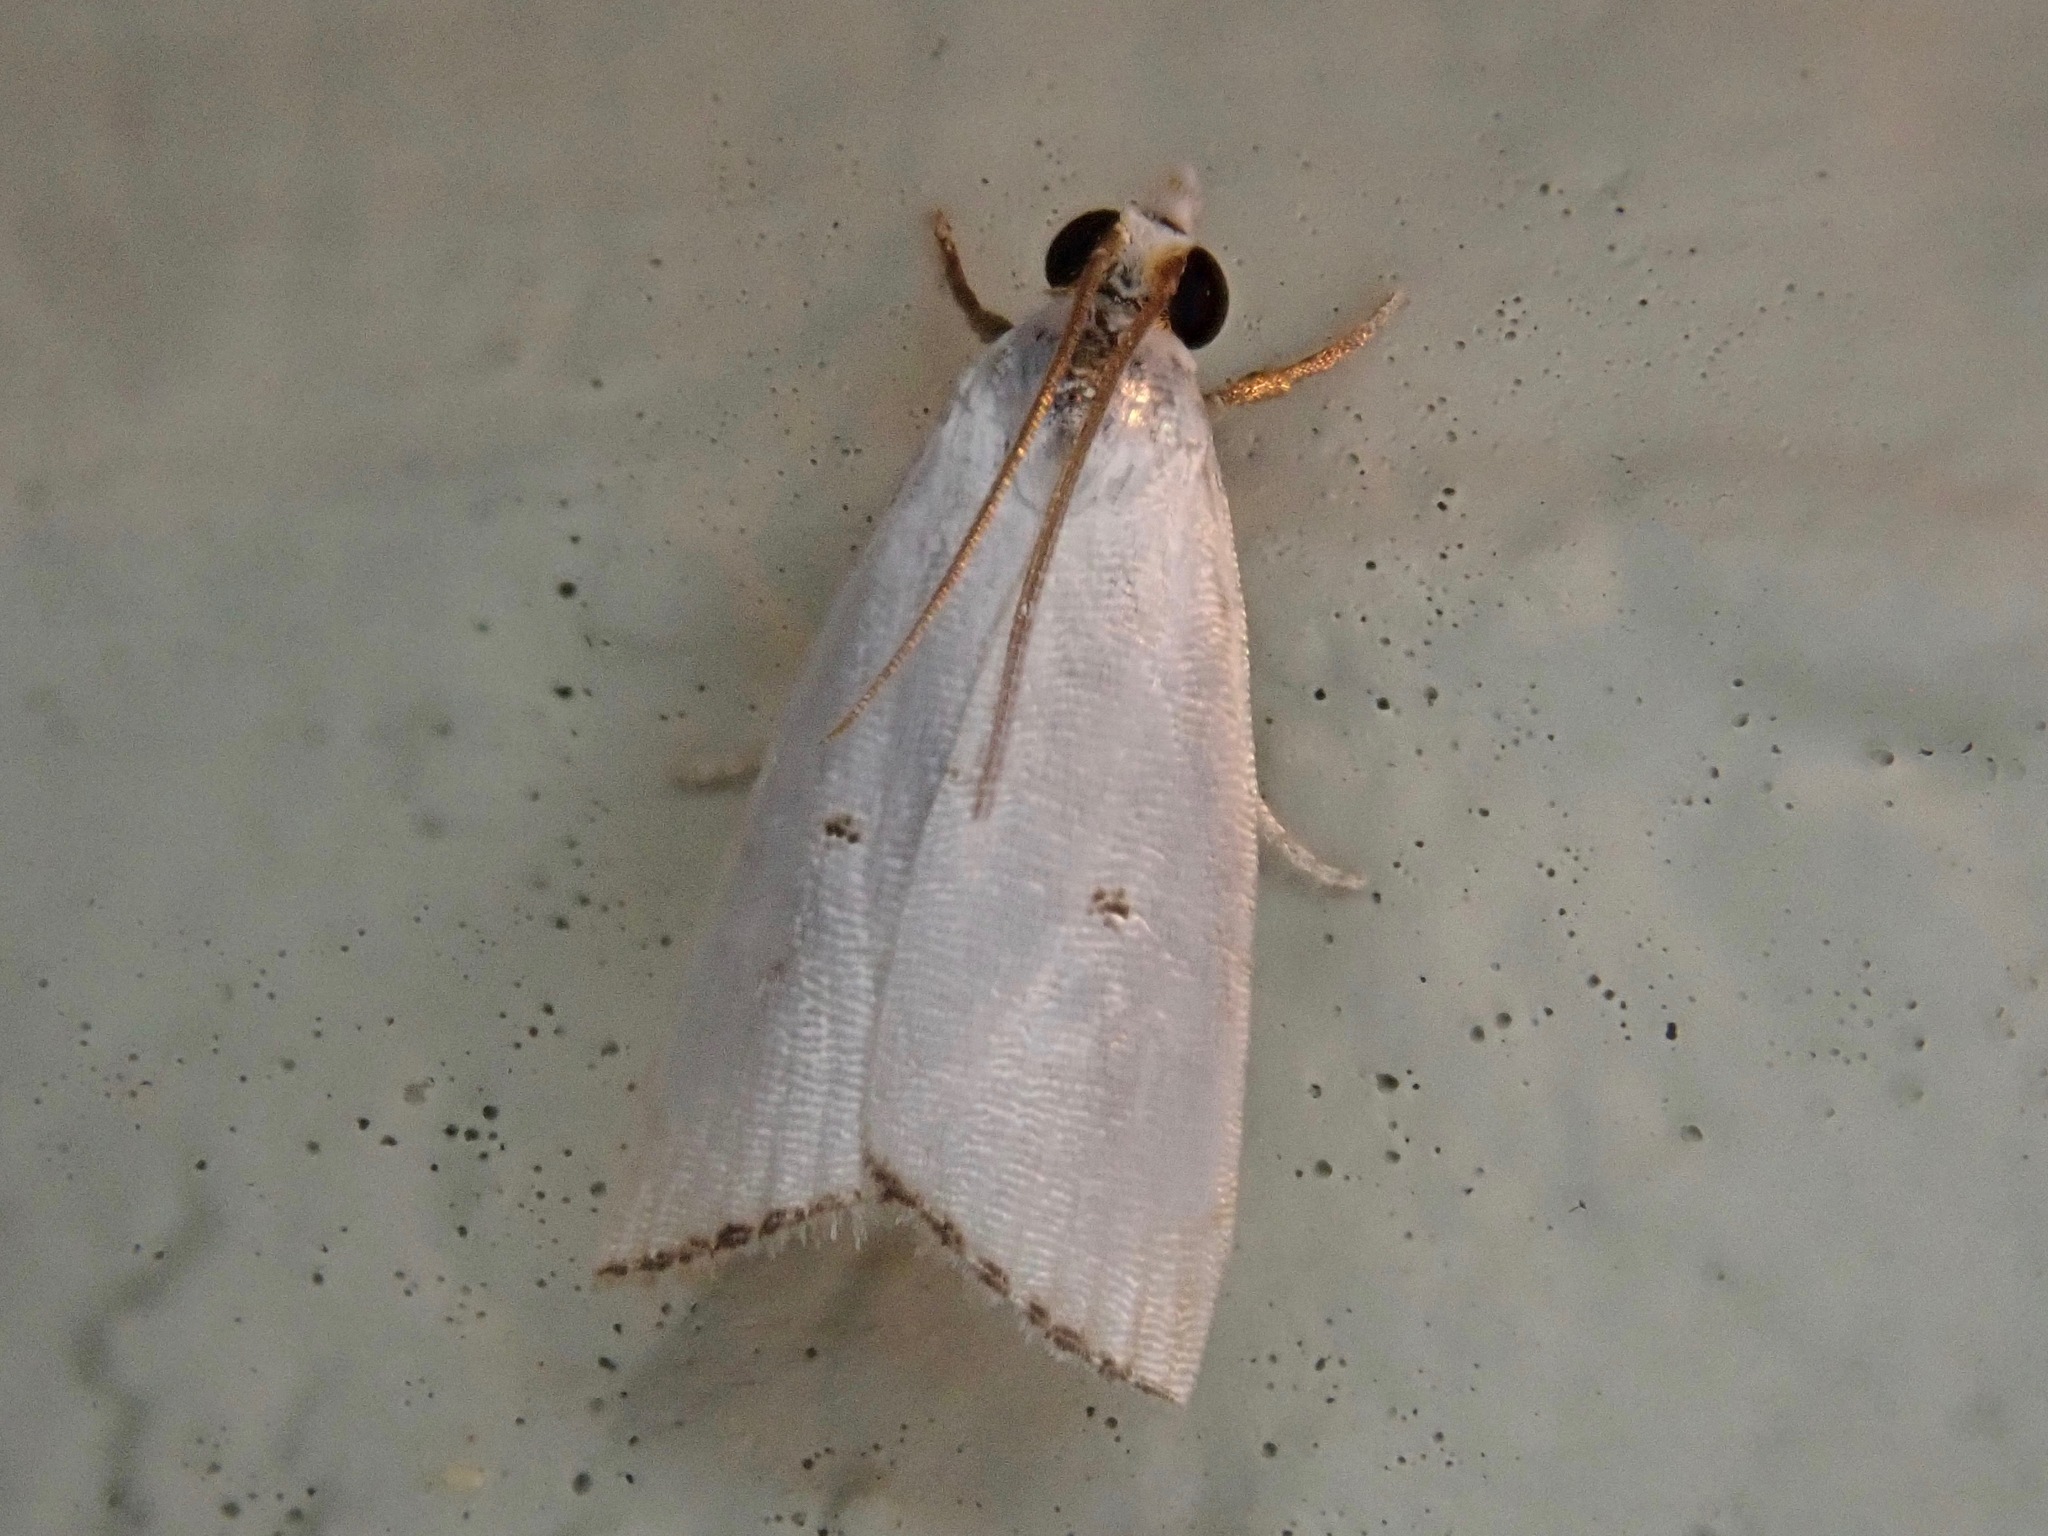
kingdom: Animalia
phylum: Arthropoda
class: Insecta
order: Lepidoptera
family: Crambidae
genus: Argyria
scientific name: Argyria pusillalis
